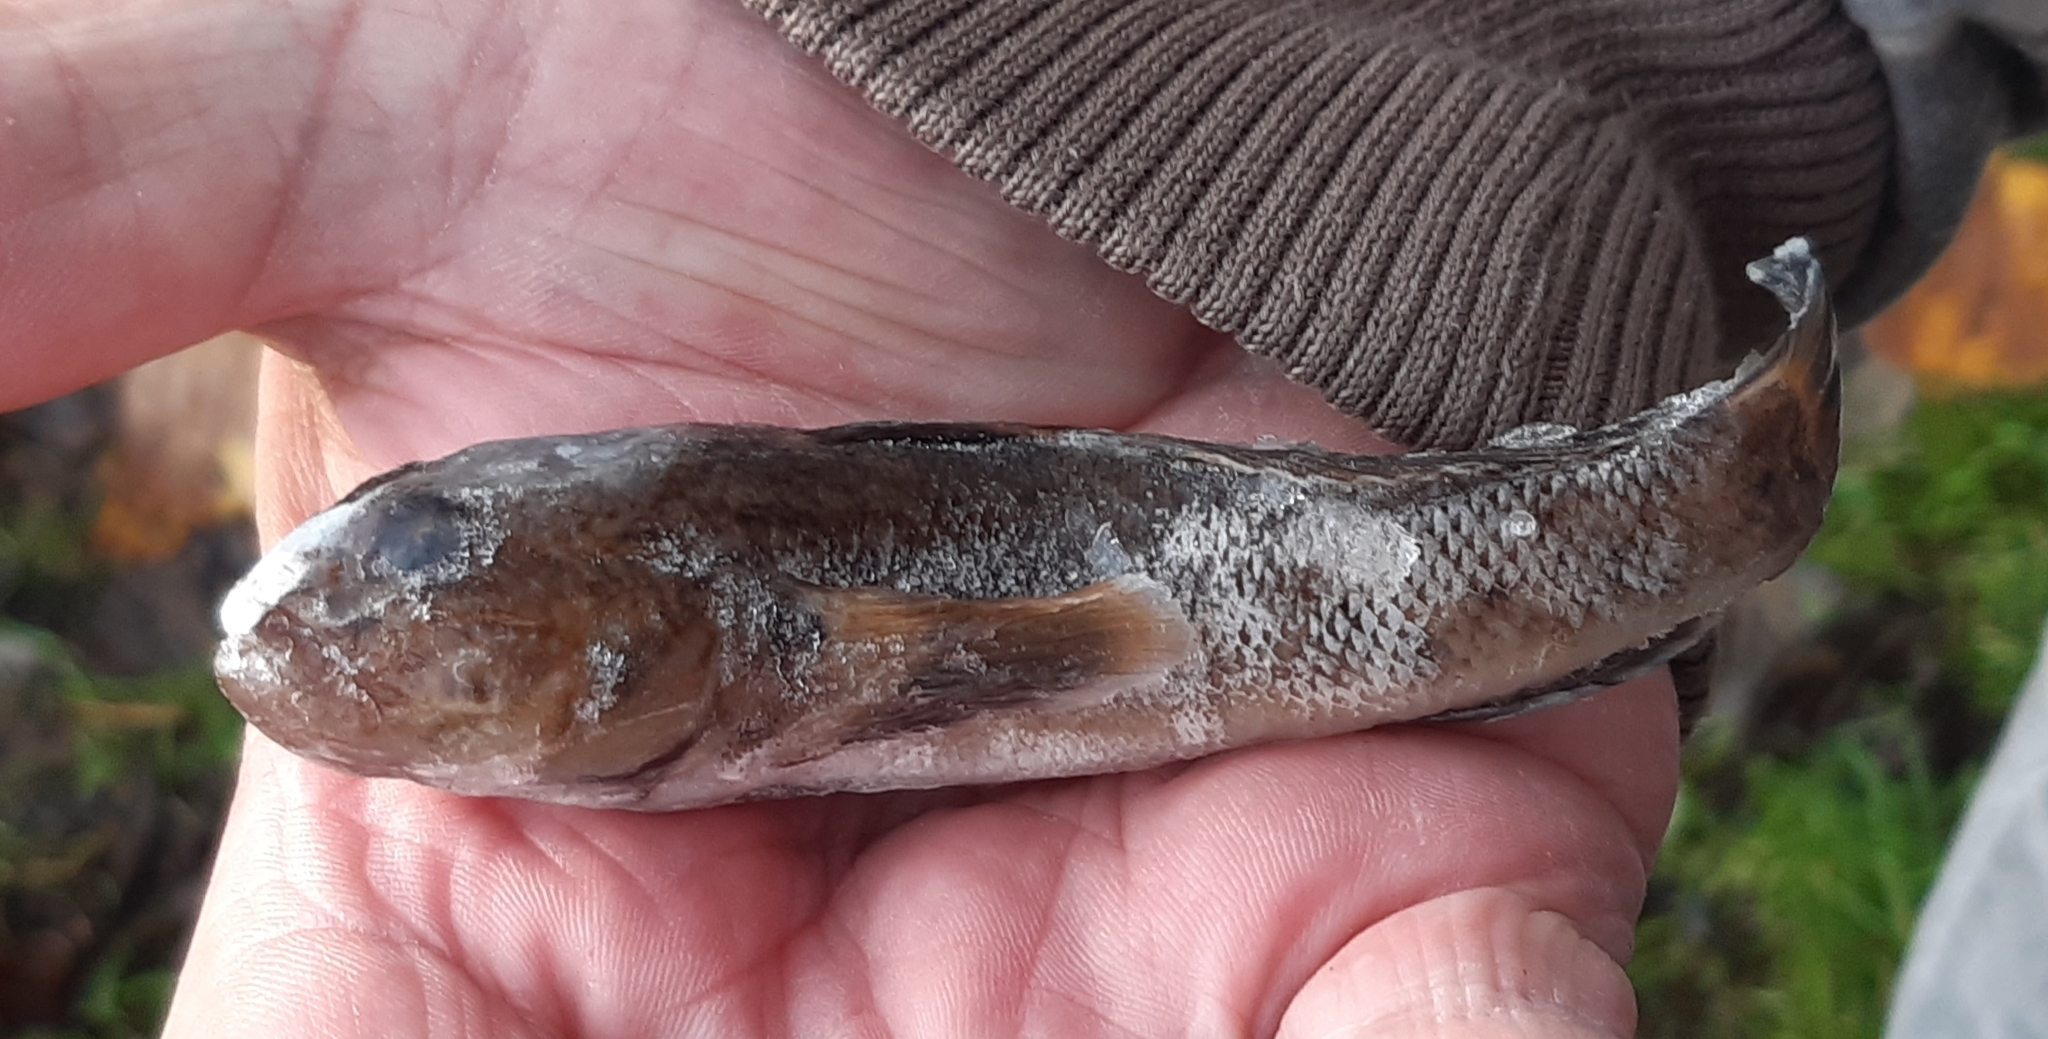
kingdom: Animalia
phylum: Chordata
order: Perciformes
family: Gobiidae
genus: Neogobius
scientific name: Neogobius melanostomus
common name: Round goby
